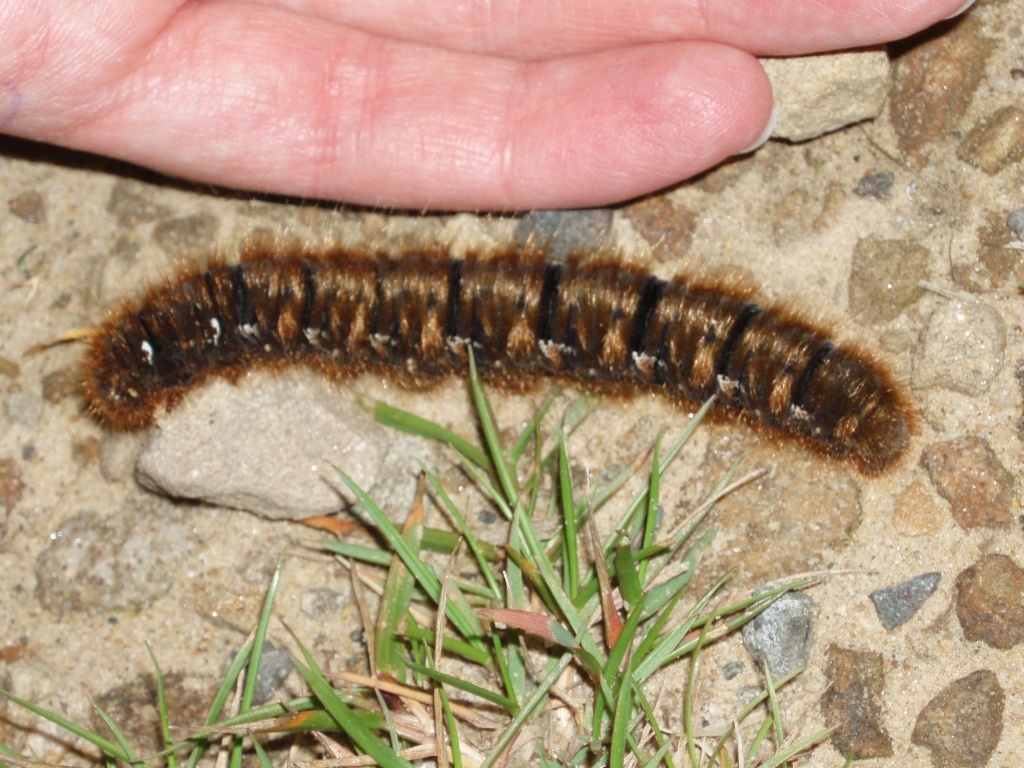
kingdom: Animalia
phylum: Arthropoda
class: Insecta
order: Lepidoptera
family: Lasiocampidae
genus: Lasiocampa
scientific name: Lasiocampa quercus
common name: Oak eggar
